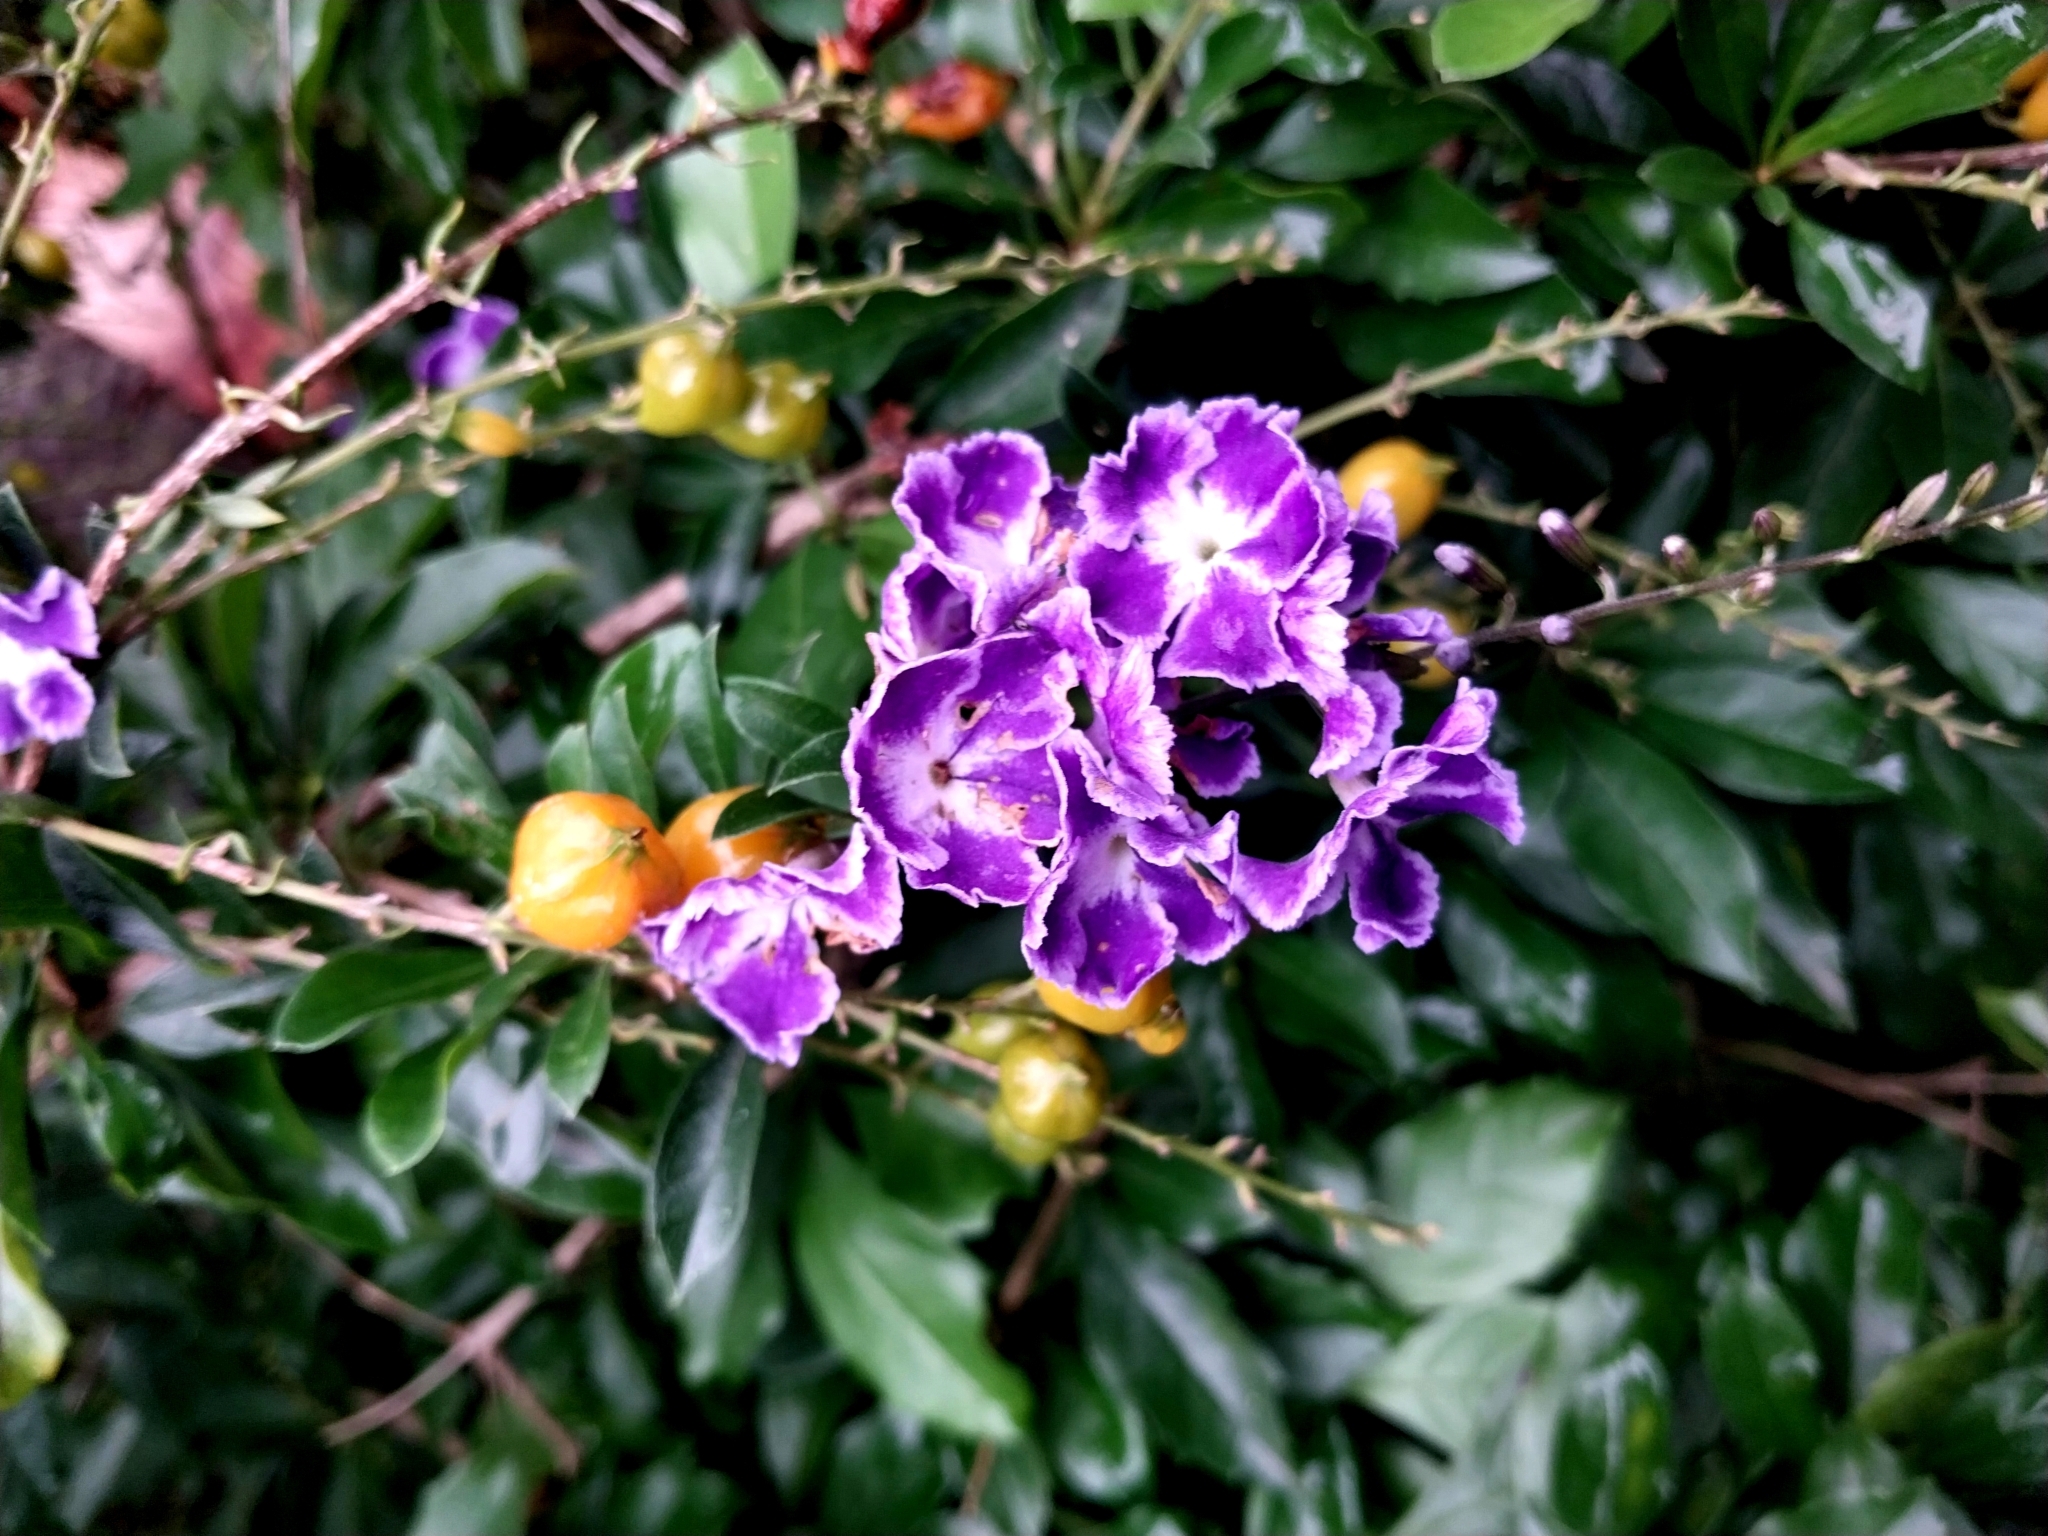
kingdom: Plantae
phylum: Tracheophyta
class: Magnoliopsida
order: Lamiales
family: Verbenaceae
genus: Duranta
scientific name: Duranta erecta
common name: Golden dewdrops
